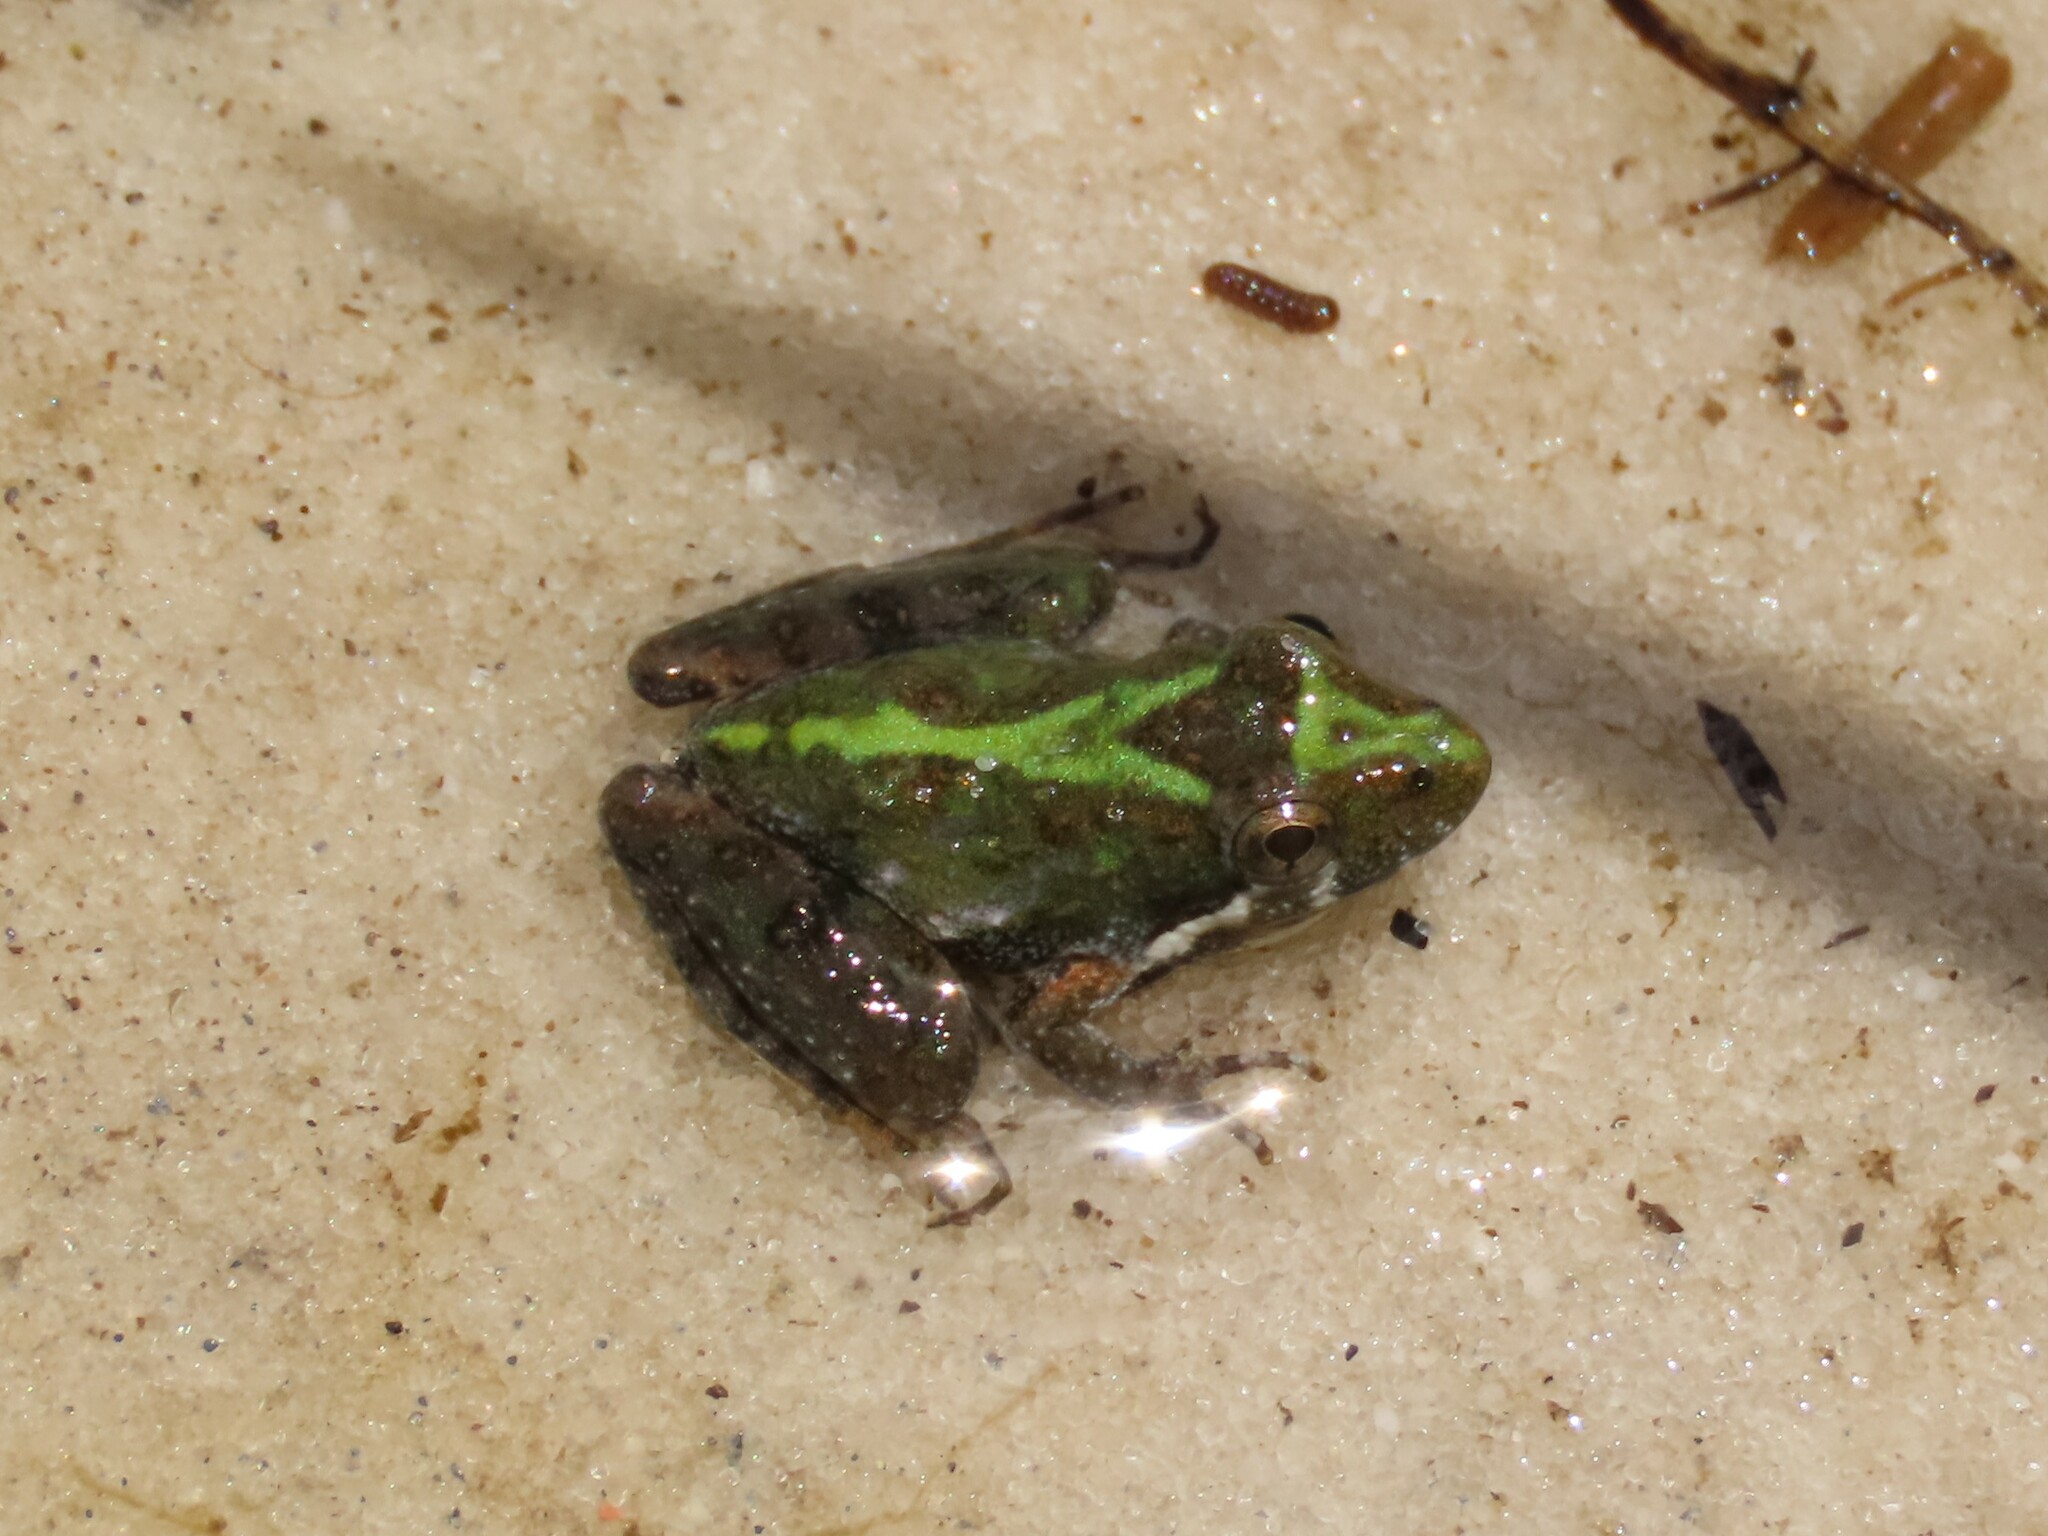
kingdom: Animalia
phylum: Chordata
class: Amphibia
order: Anura
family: Hylidae
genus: Acris
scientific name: Acris gryllus
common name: Southern cricket frog
